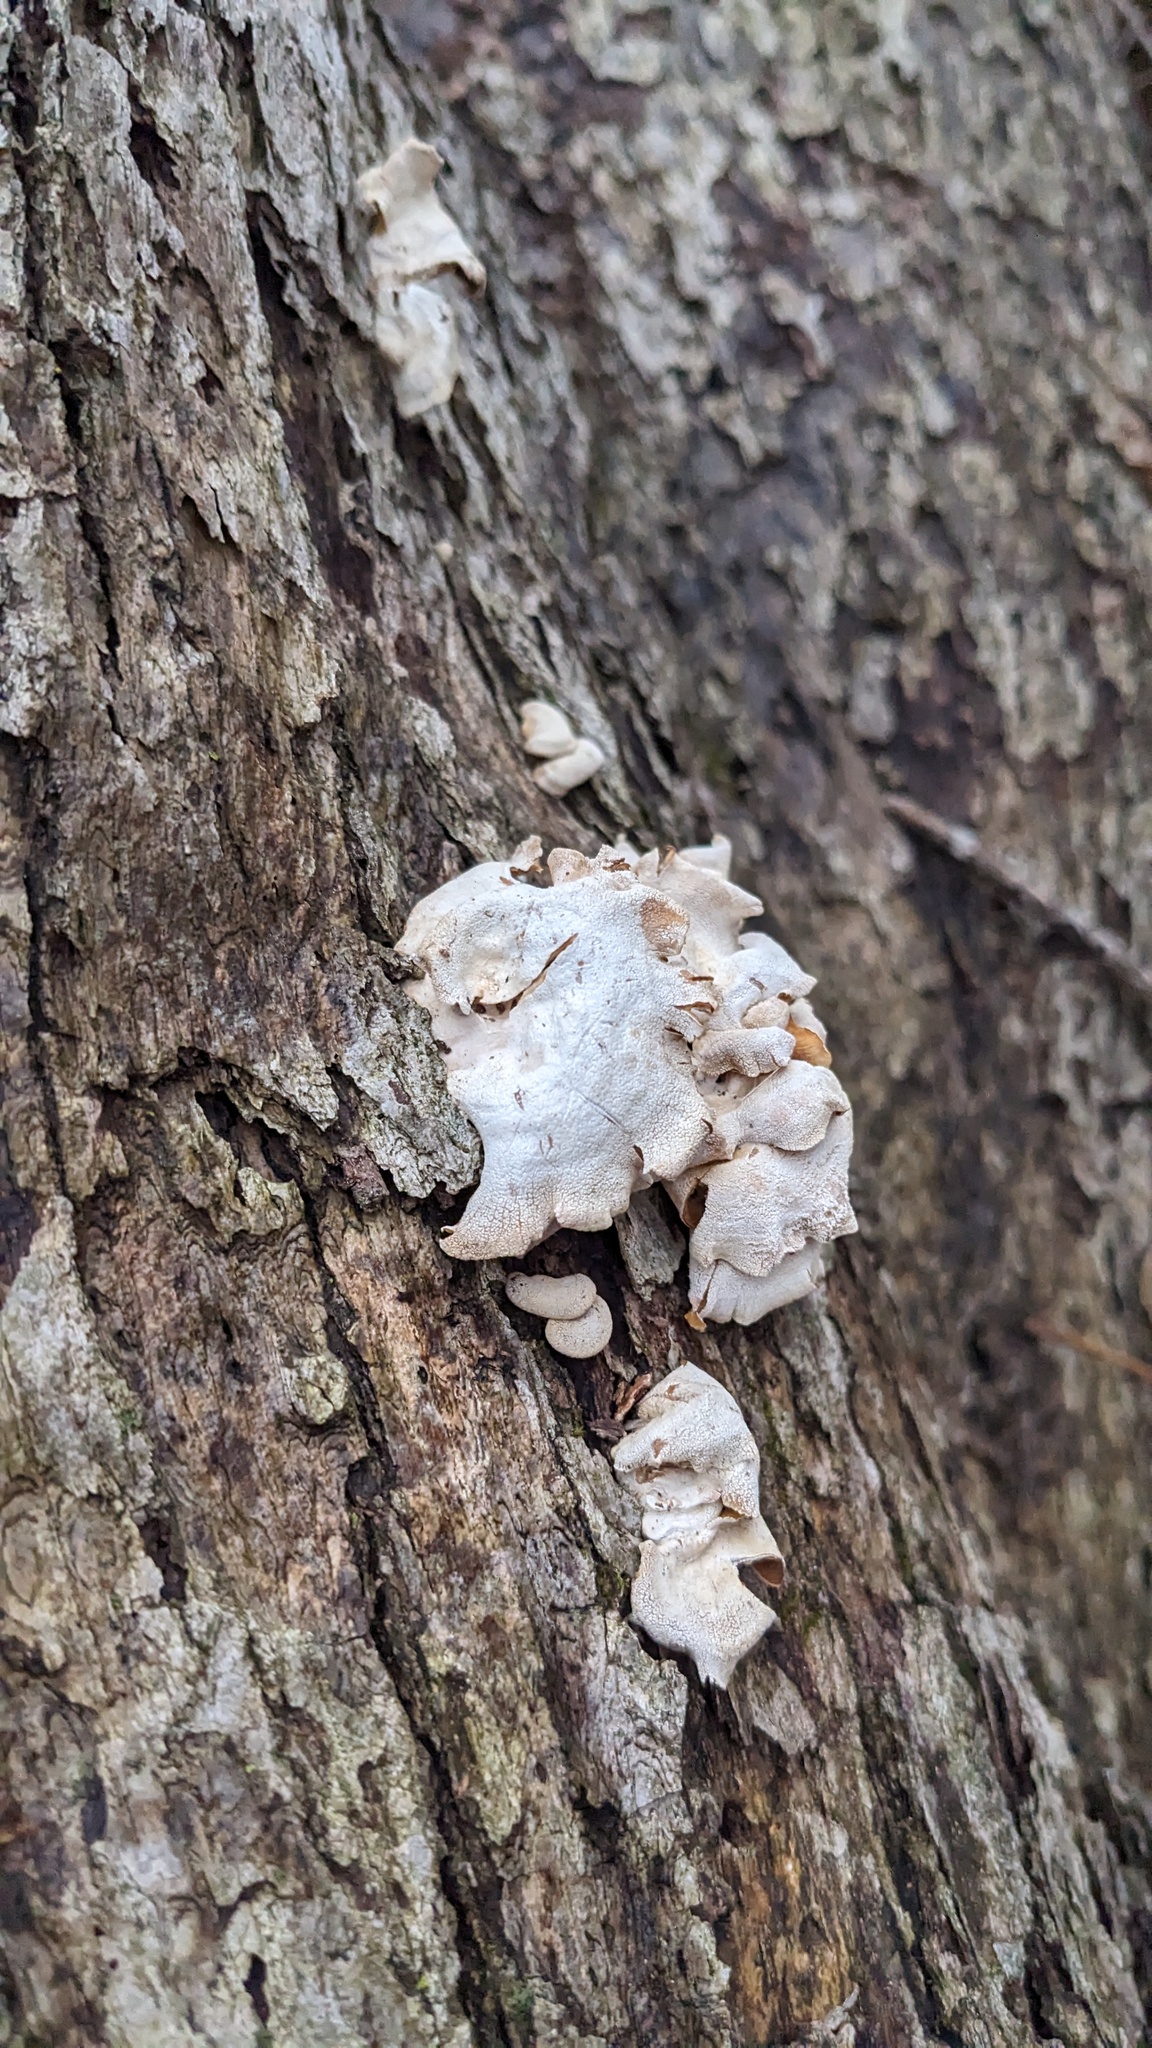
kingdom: Fungi
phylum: Basidiomycota
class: Agaricomycetes
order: Agaricales
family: Mycenaceae
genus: Panellus
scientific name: Panellus stipticus
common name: Bitter oysterling
